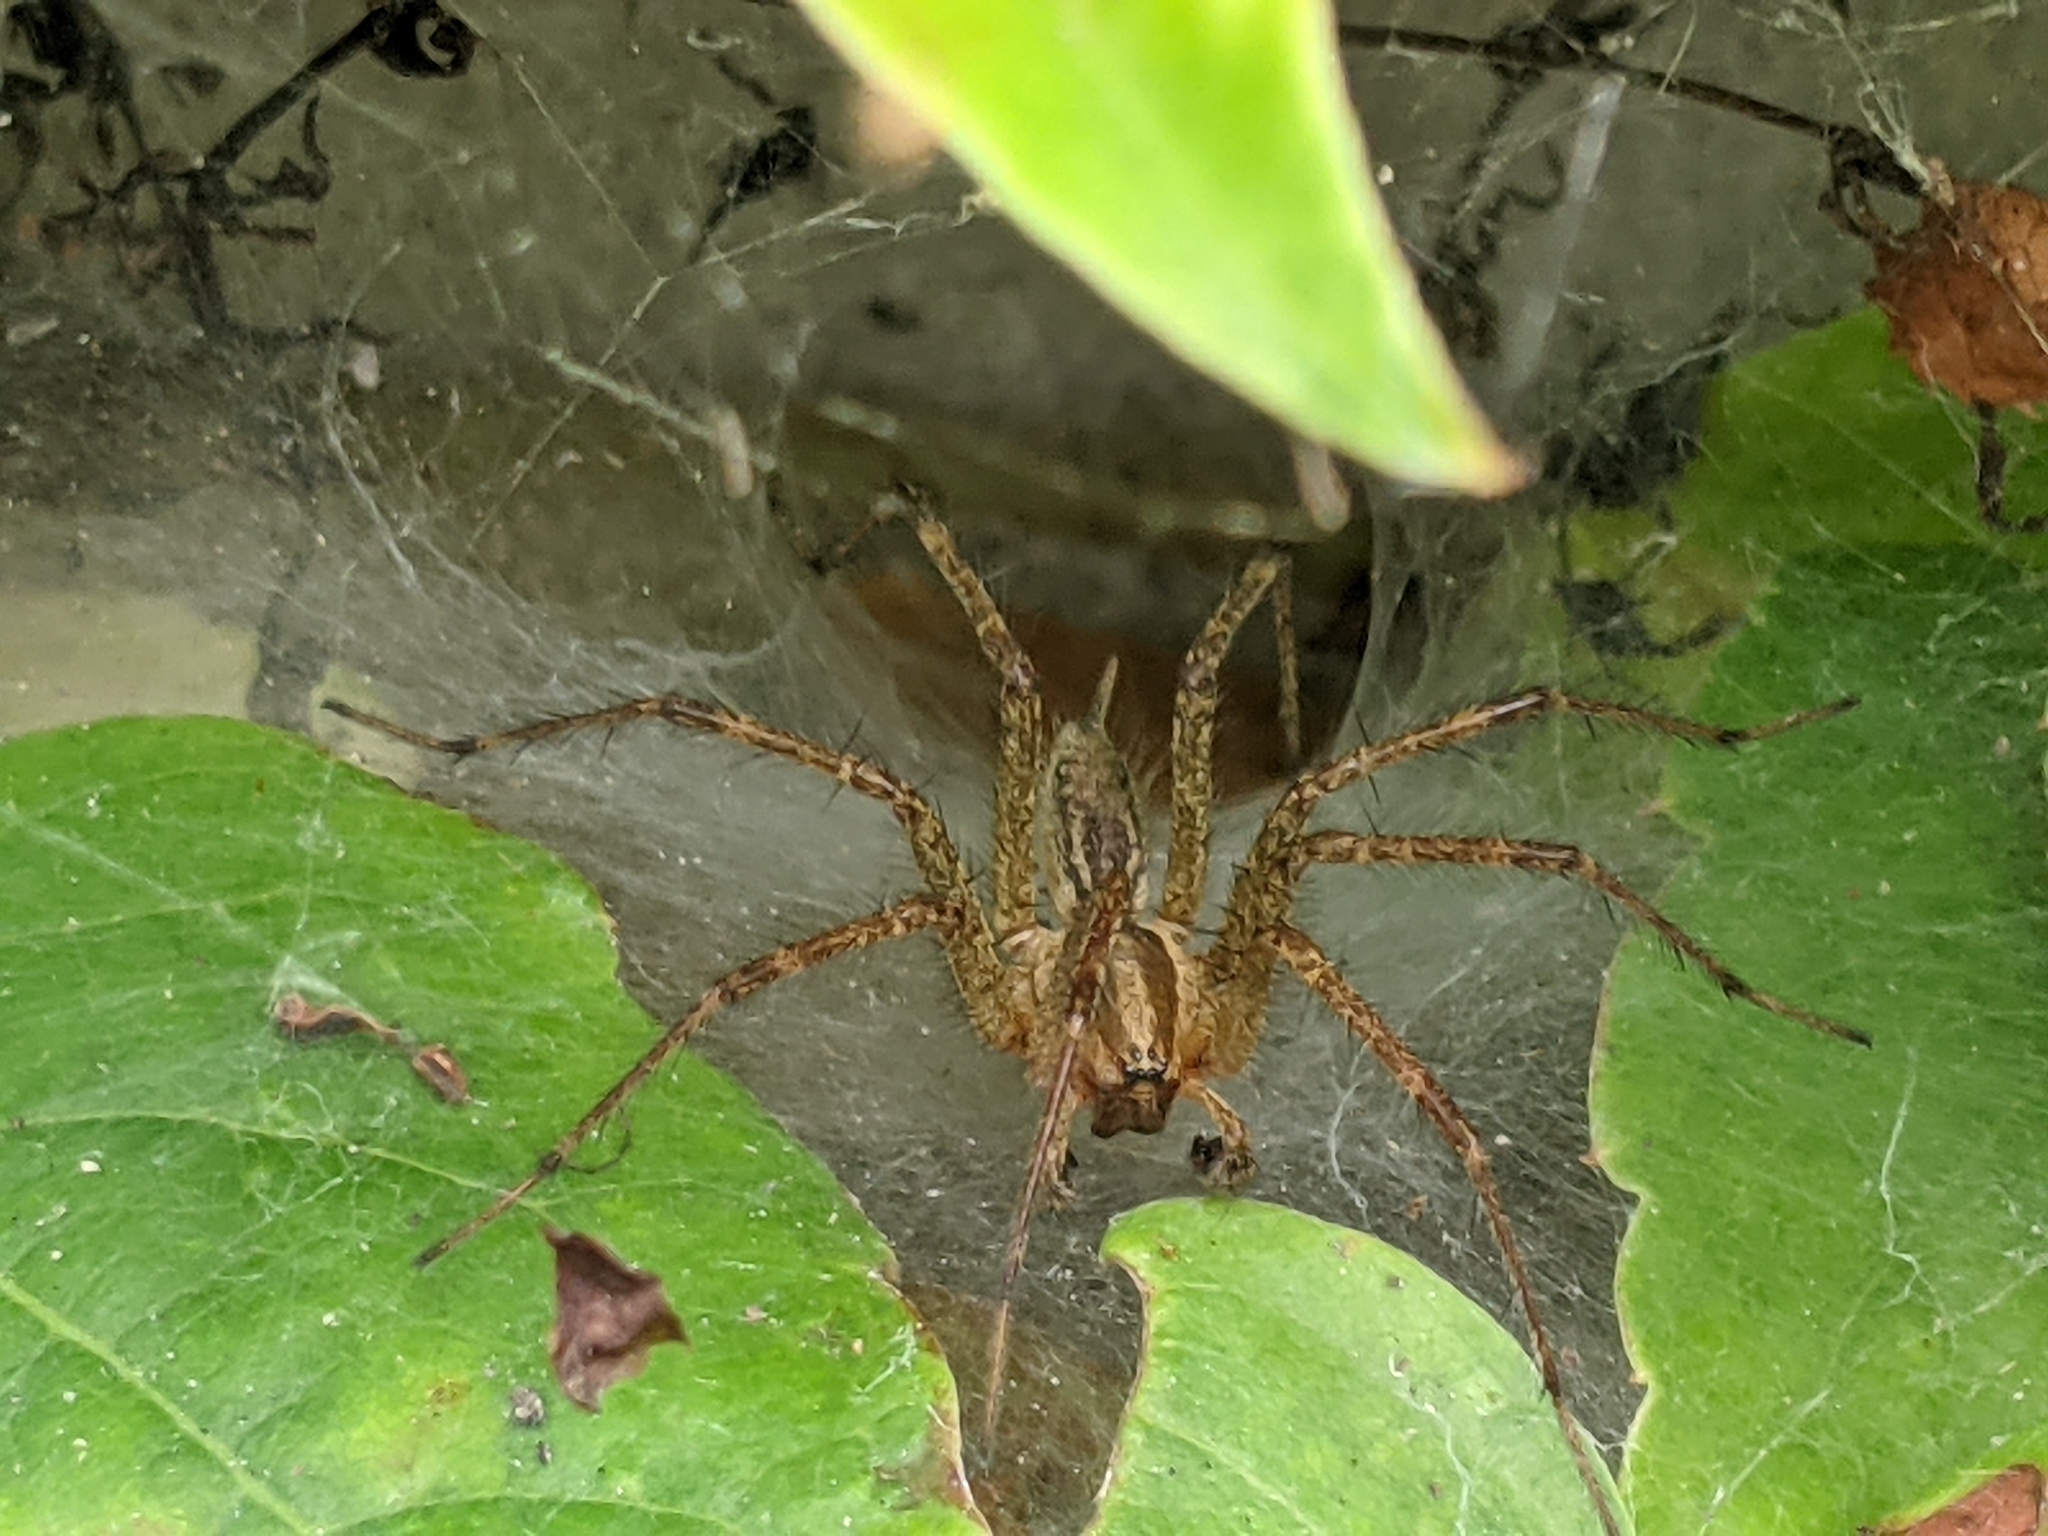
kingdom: Animalia
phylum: Arthropoda
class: Arachnida
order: Araneae
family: Agelenidae
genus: Agelenopsis
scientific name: Agelenopsis
